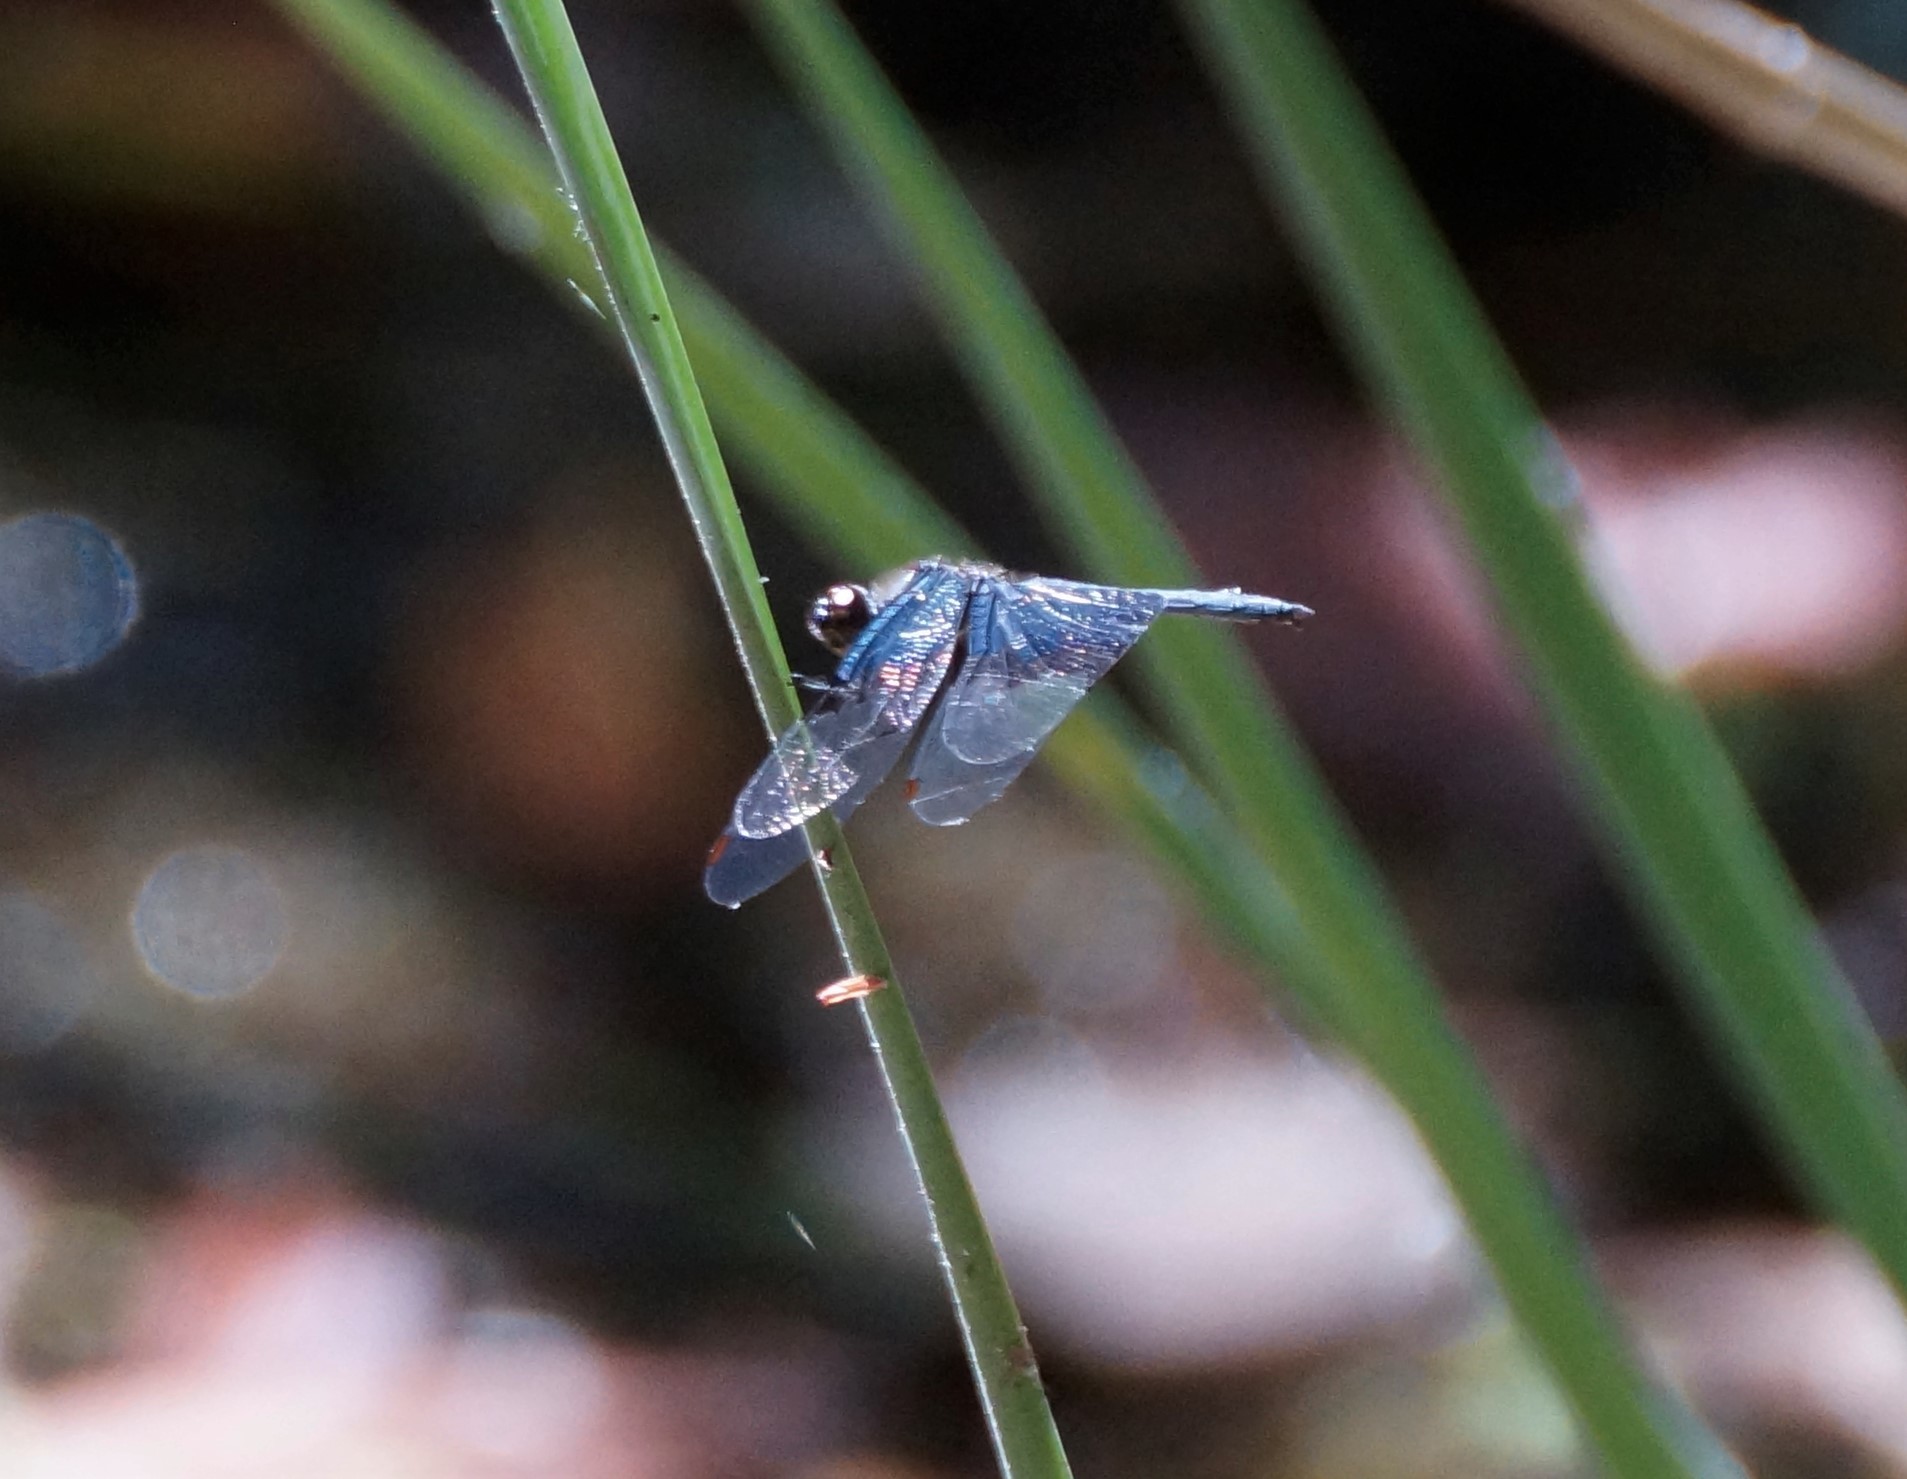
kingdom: Animalia
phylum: Arthropoda
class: Insecta
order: Odonata
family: Libellulidae
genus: Rhyothemis
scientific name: Rhyothemis braganza
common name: Iridescent flutterer
